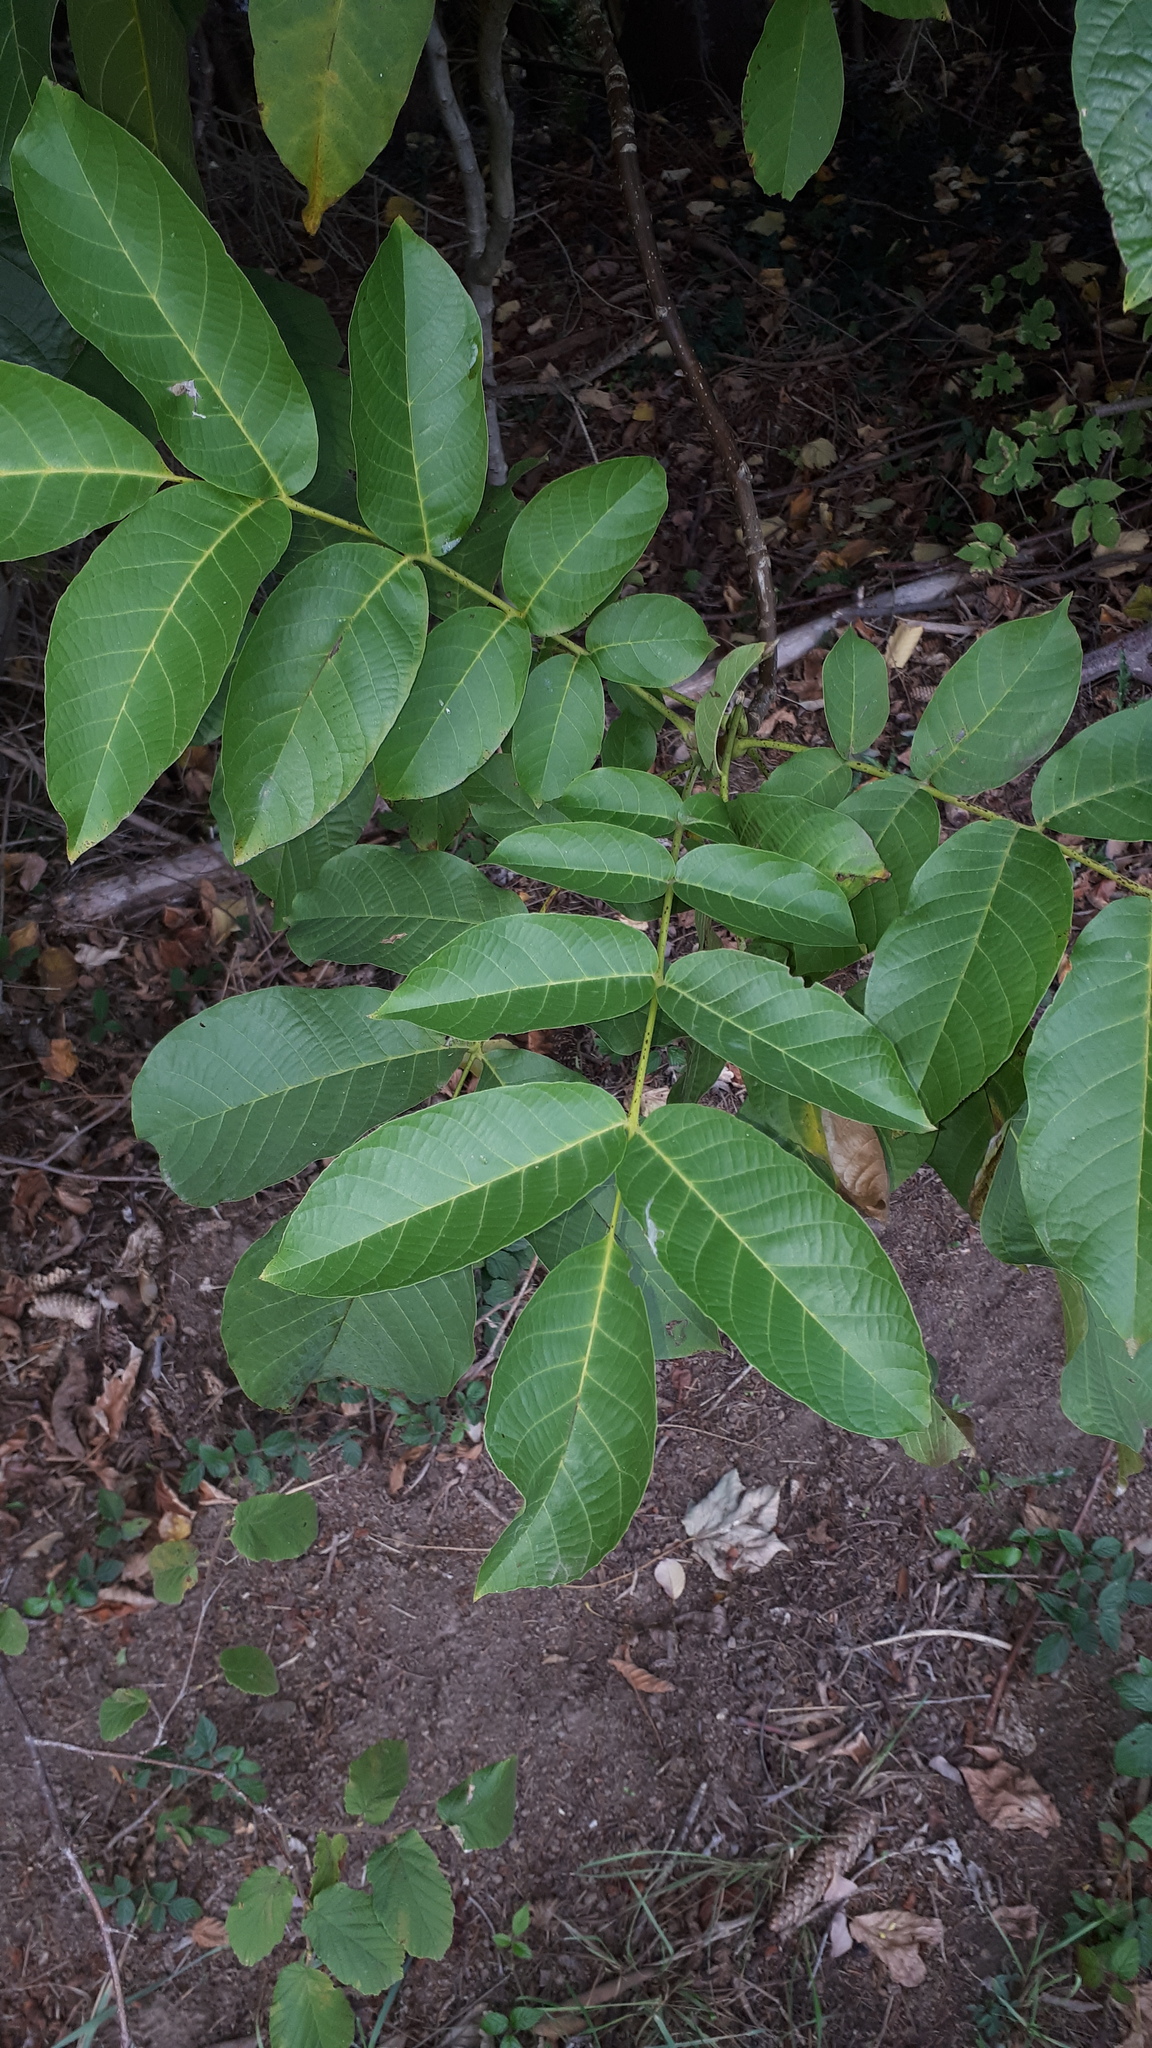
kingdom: Plantae
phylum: Tracheophyta
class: Magnoliopsida
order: Fagales
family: Juglandaceae
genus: Juglans
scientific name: Juglans regia
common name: Walnut
